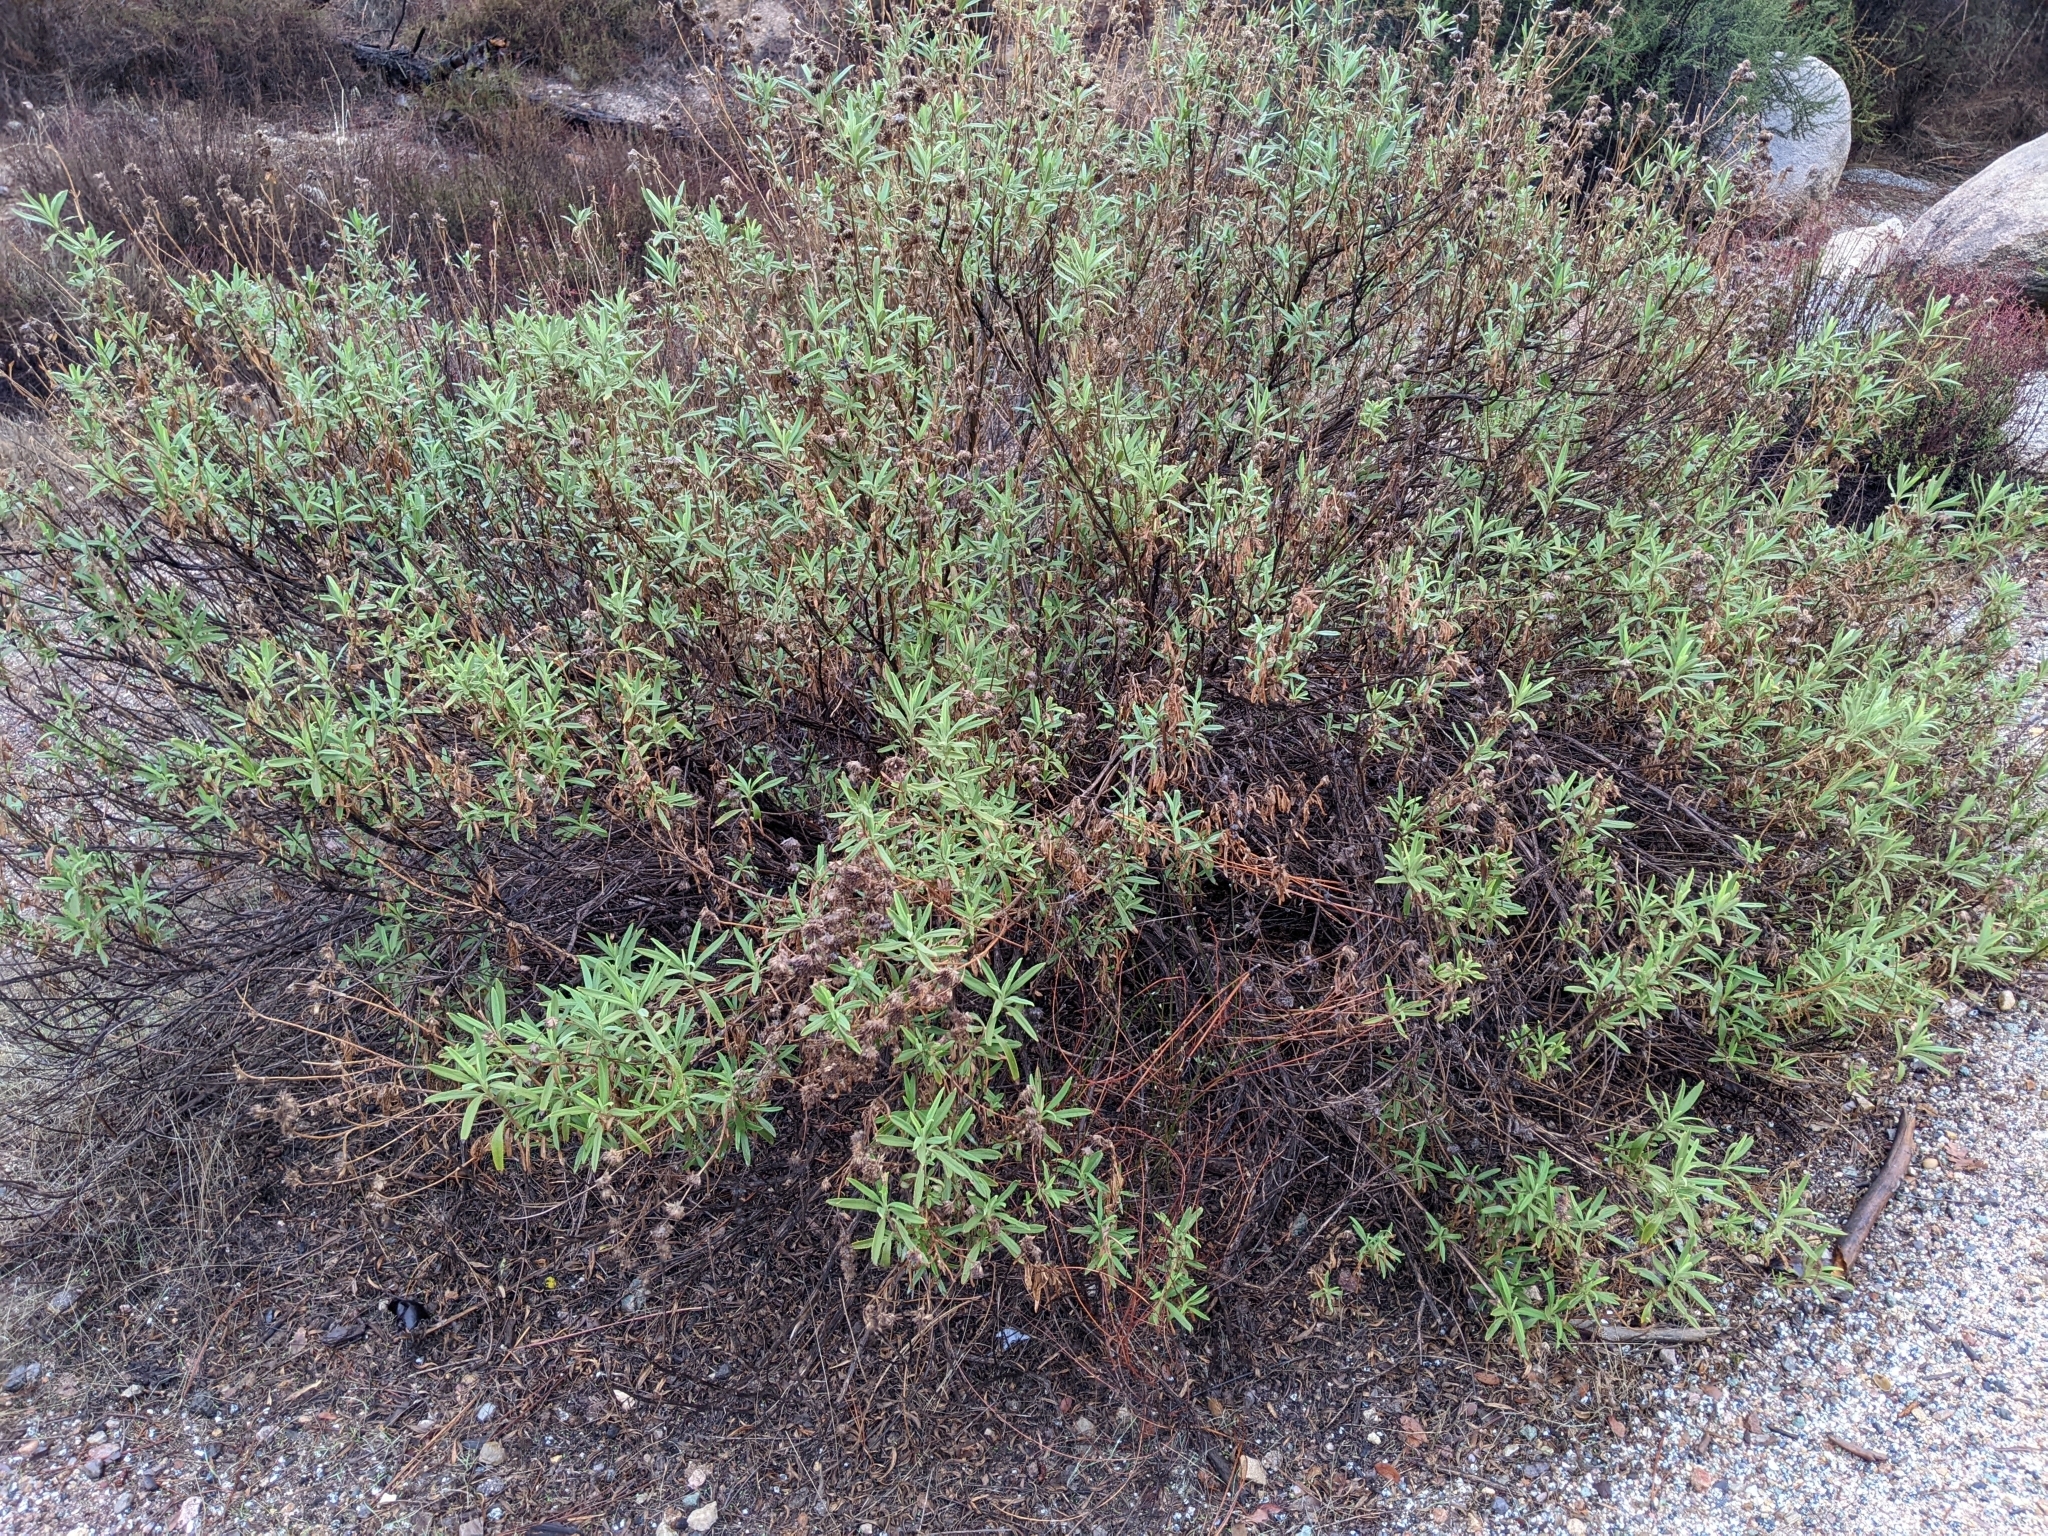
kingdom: Plantae
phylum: Tracheophyta
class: Magnoliopsida
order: Lamiales
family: Lamiaceae
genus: Salvia
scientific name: Salvia mellifera
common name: Black sage
